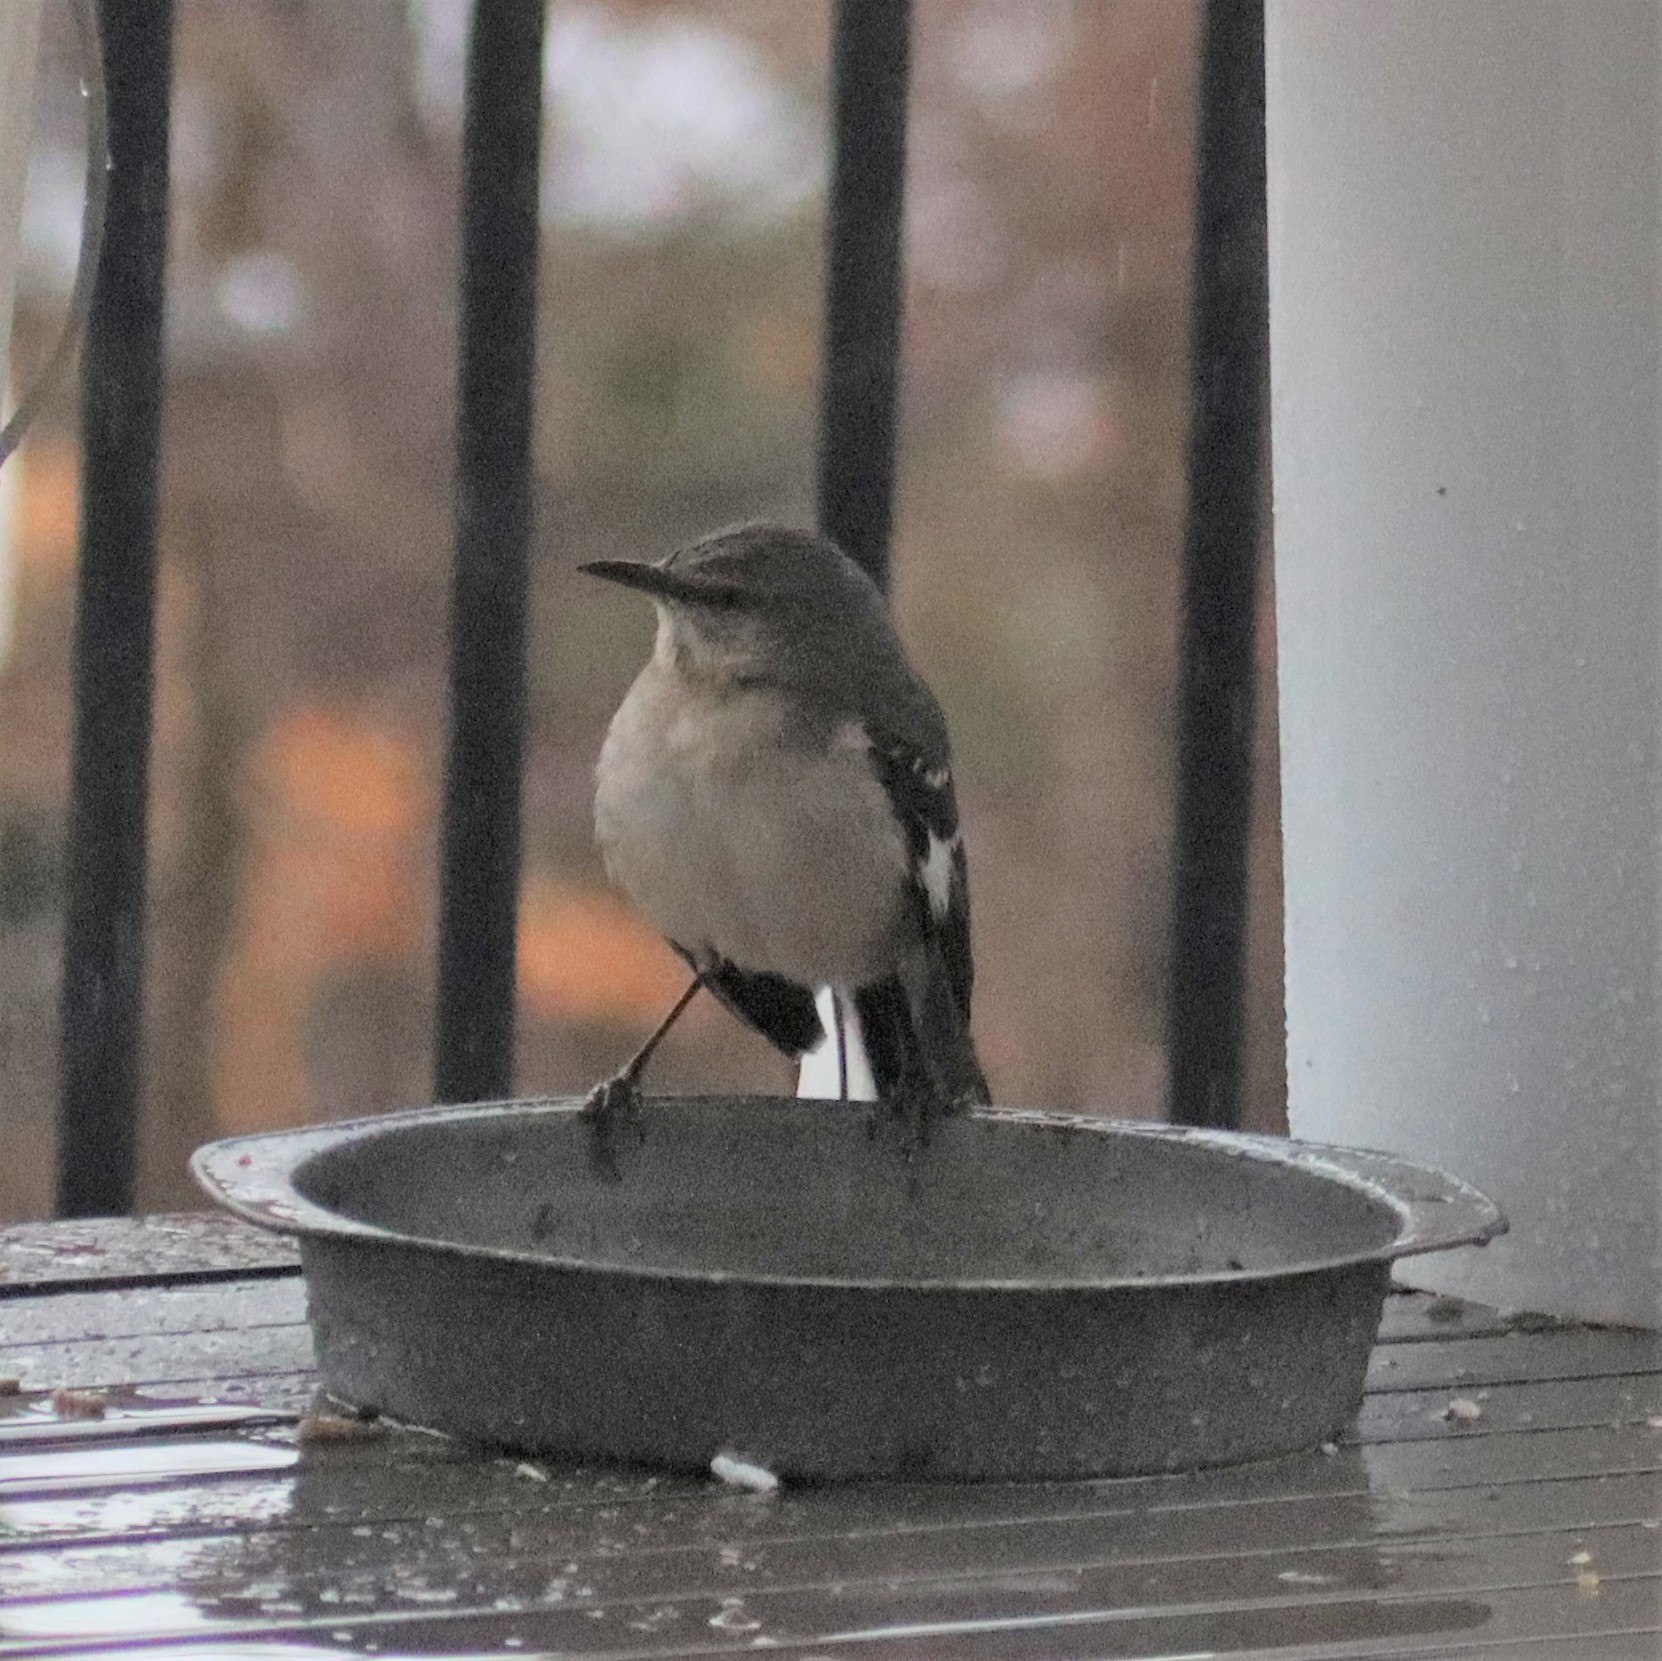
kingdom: Animalia
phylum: Chordata
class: Aves
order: Passeriformes
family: Mimidae
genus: Mimus
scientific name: Mimus polyglottos
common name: Northern mockingbird
